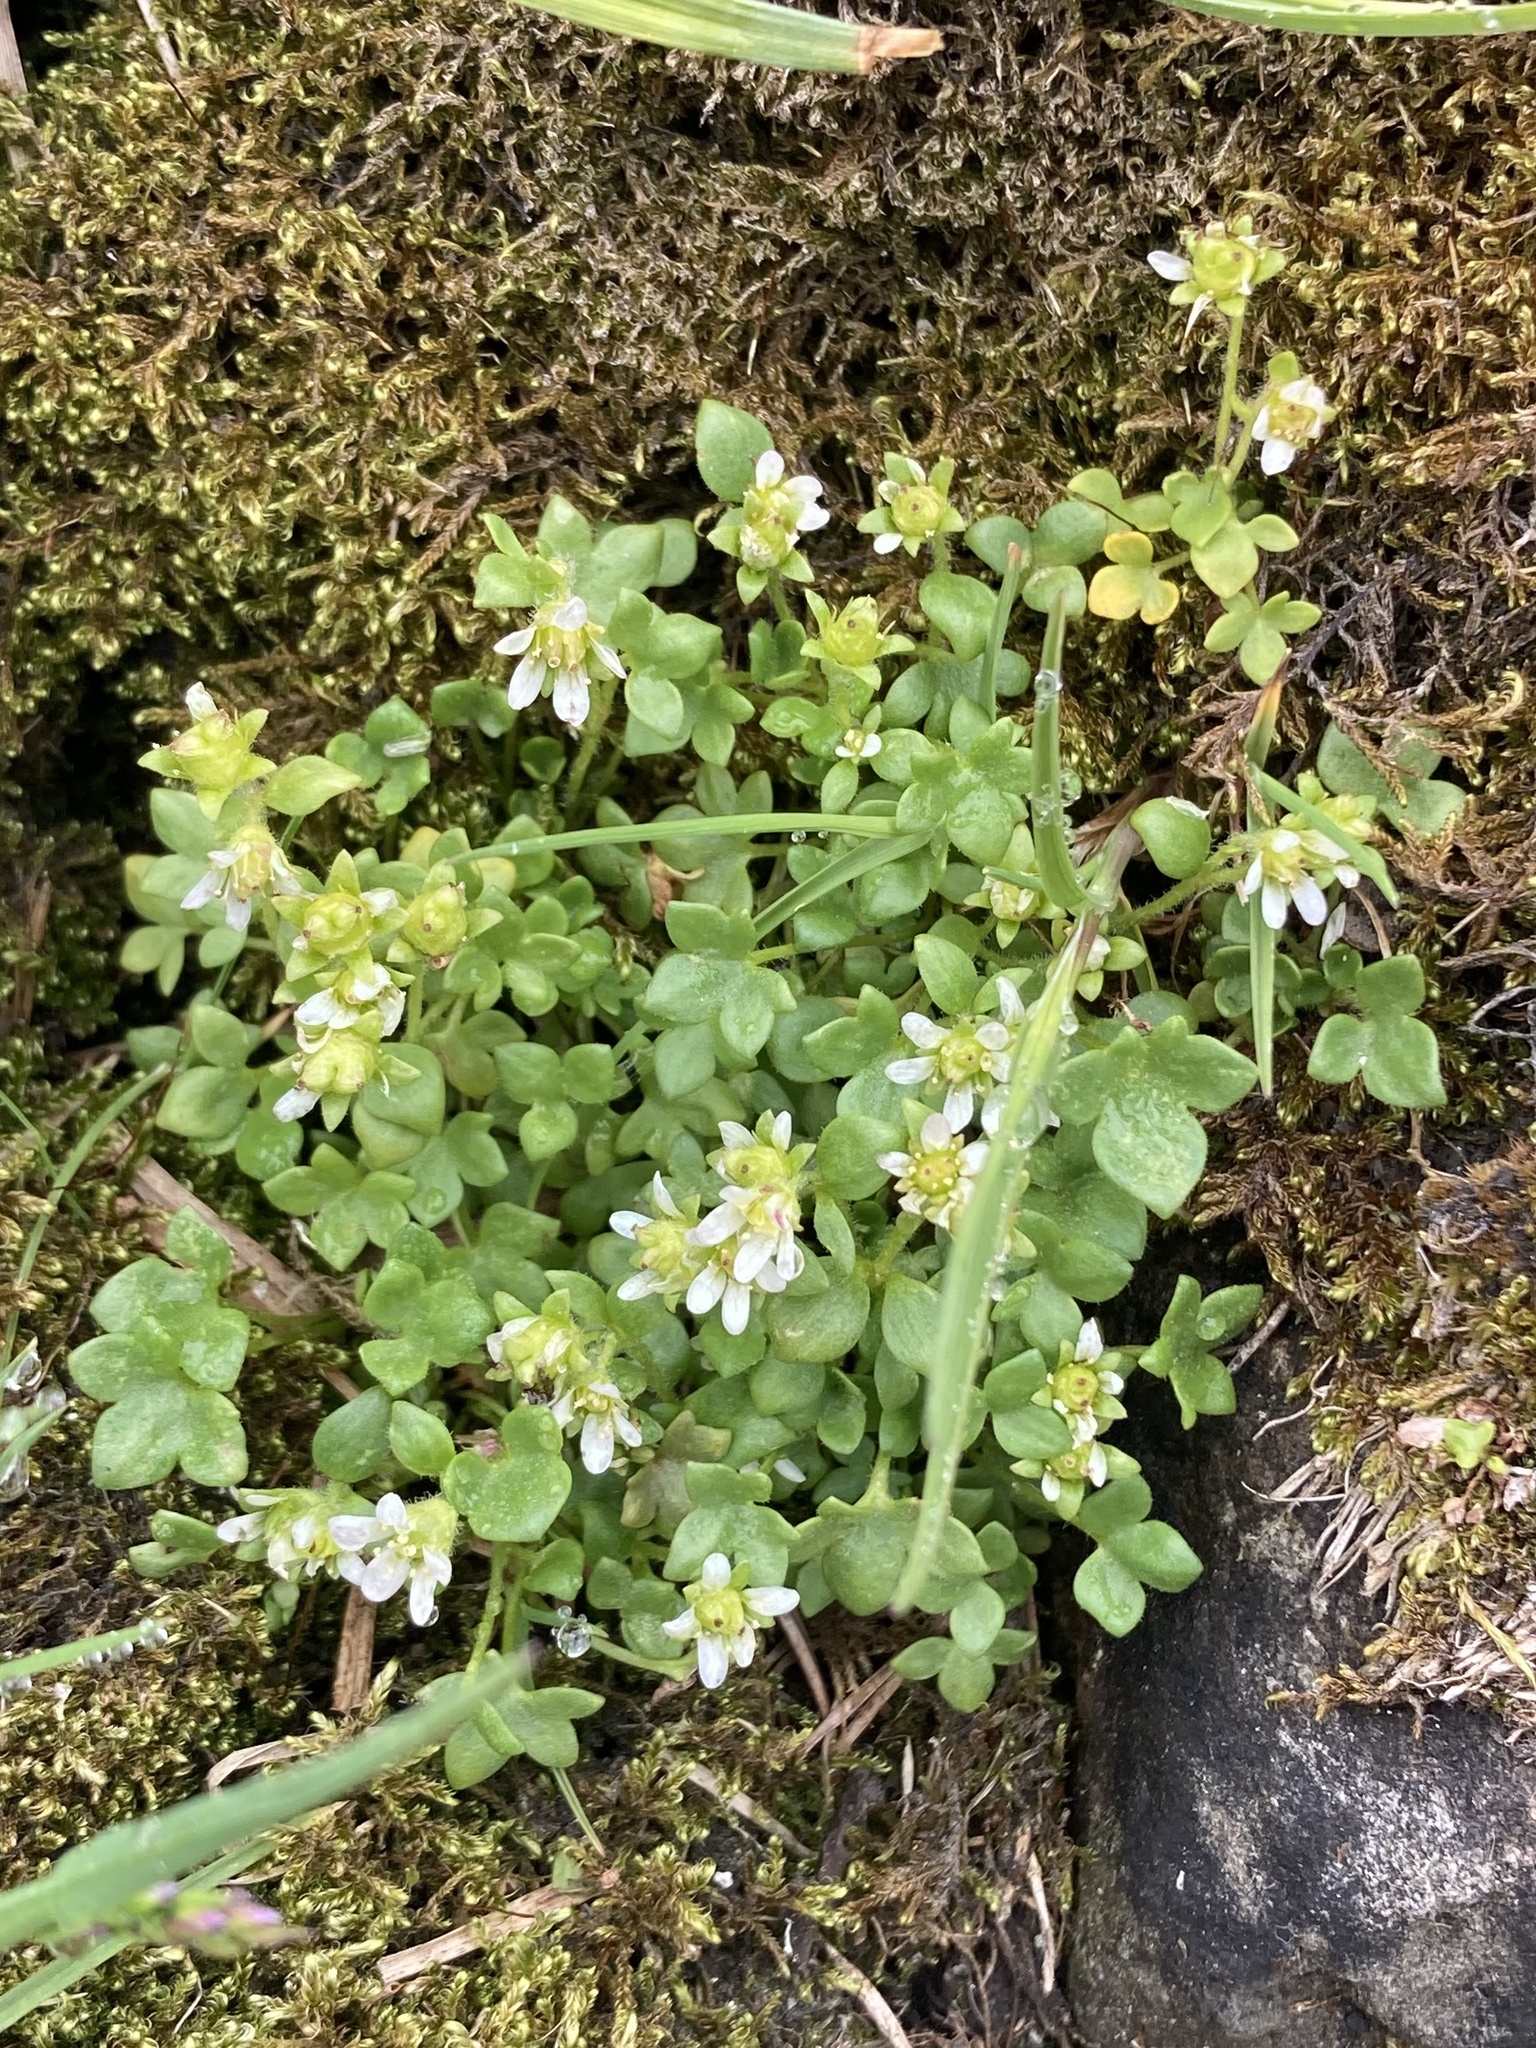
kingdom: Plantae
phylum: Tracheophyta
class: Magnoliopsida
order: Saxifragales
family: Saxifragaceae
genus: Saxifraga
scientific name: Saxifraga rivularis
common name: Highland saxifrage
